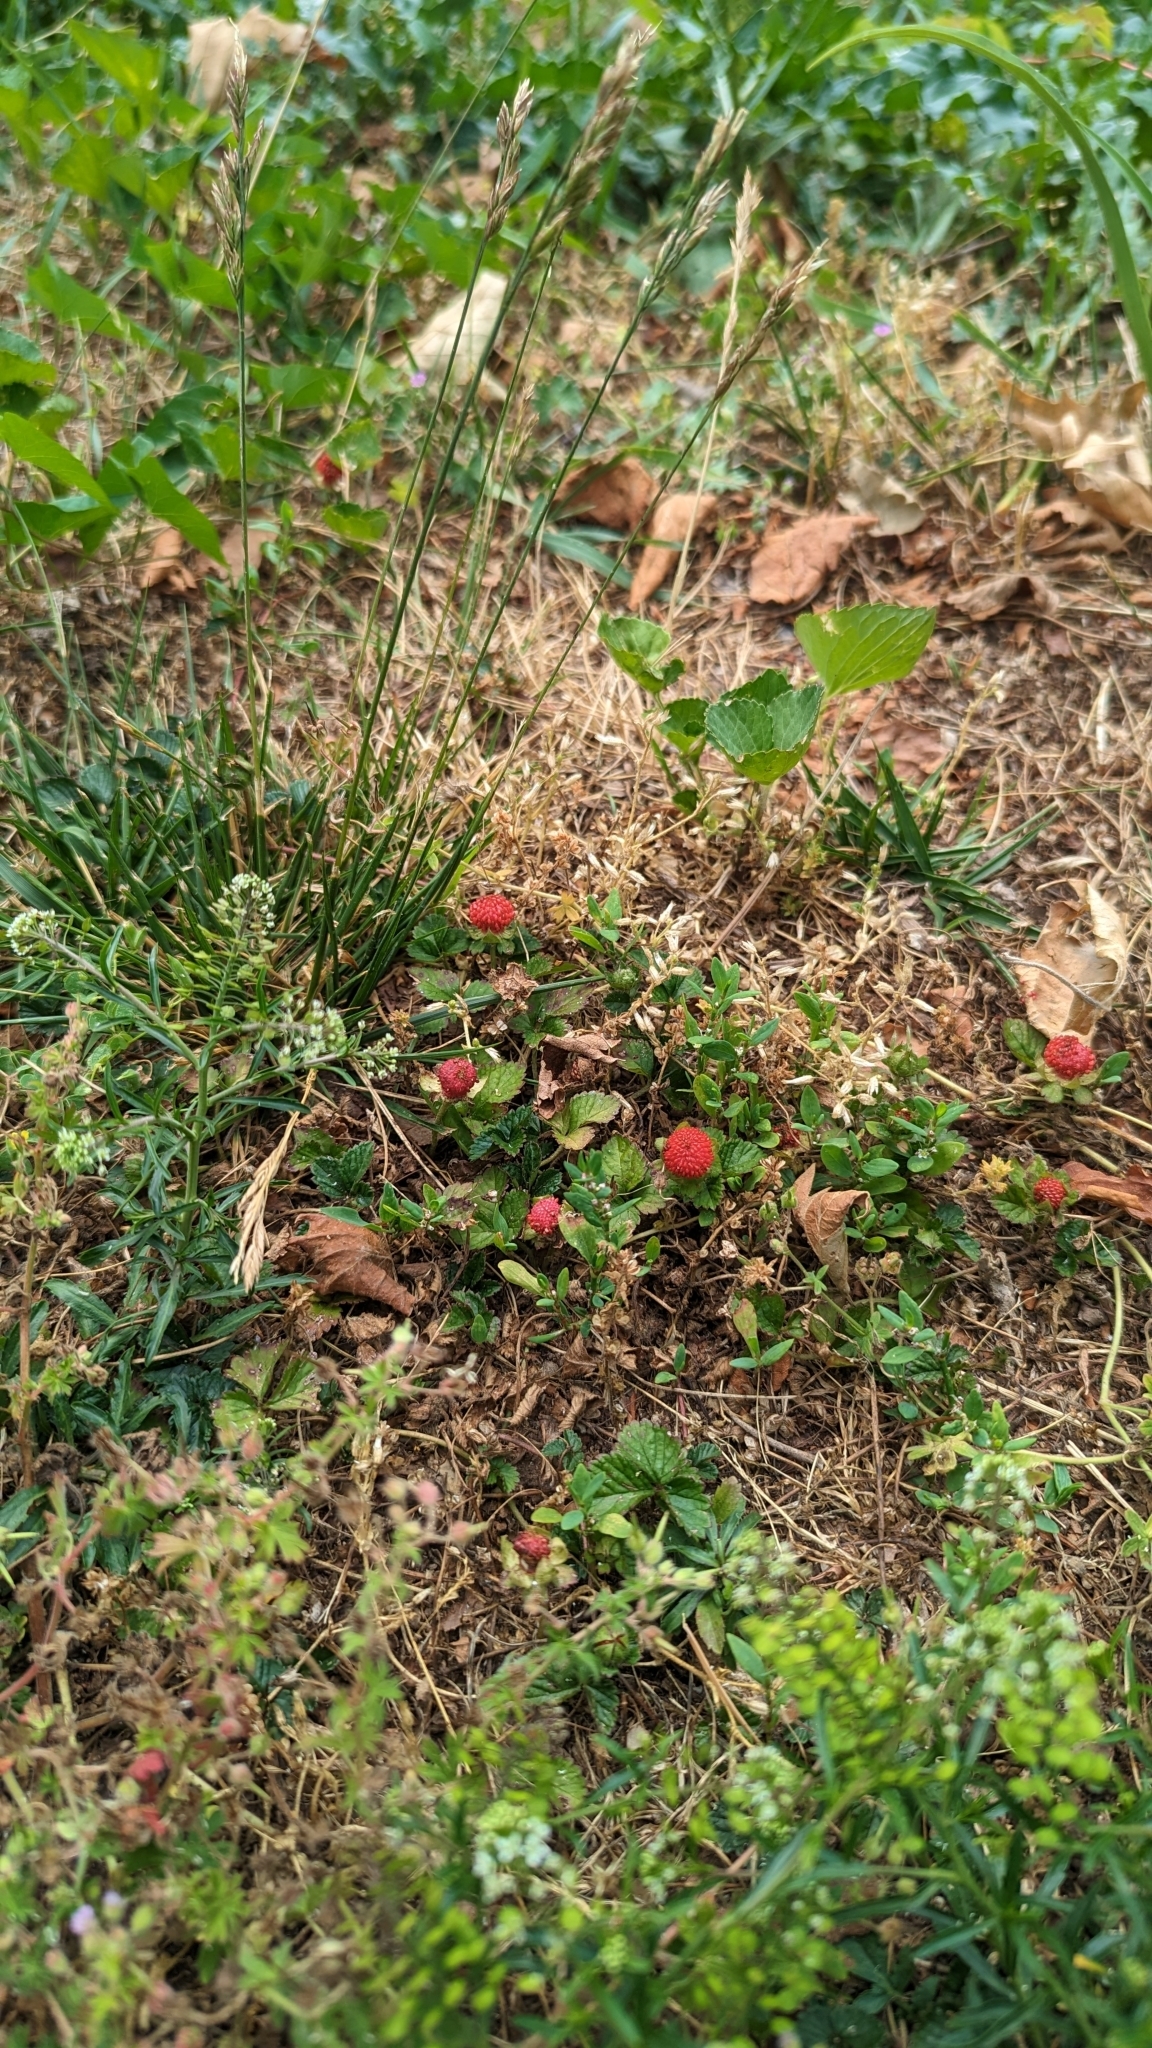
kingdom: Plantae
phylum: Tracheophyta
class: Magnoliopsida
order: Rosales
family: Rosaceae
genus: Potentilla
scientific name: Potentilla indica
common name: Yellow-flowered strawberry
